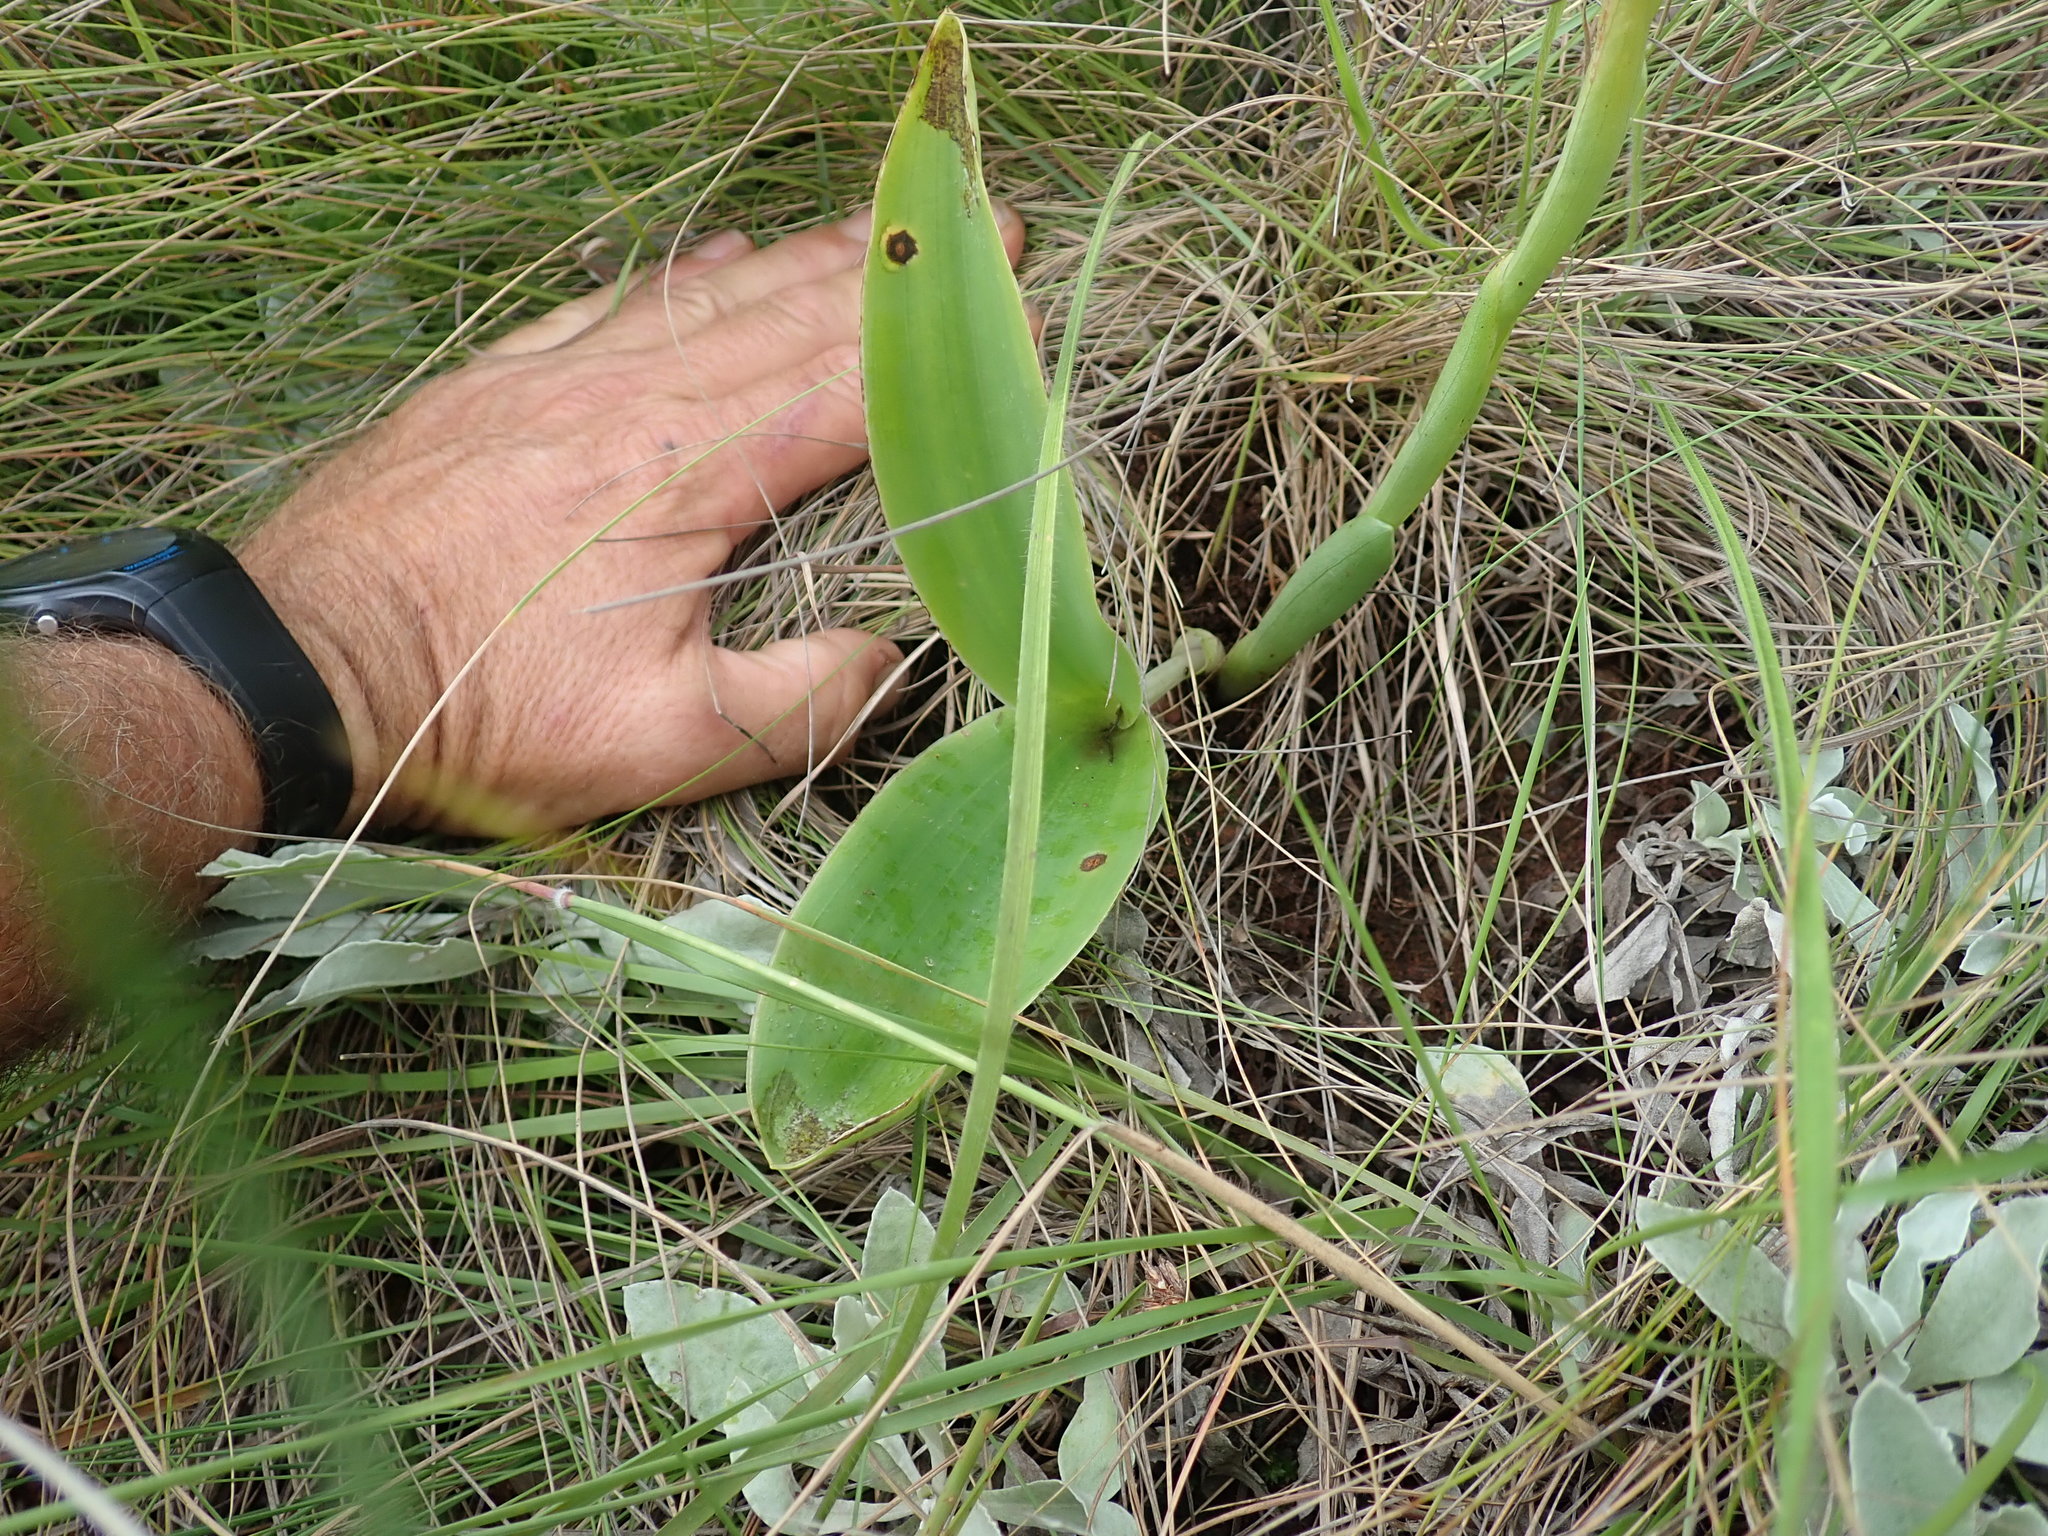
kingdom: Plantae
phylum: Tracheophyta
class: Liliopsida
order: Asparagales
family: Orchidaceae
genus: Satyrium
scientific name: Satyrium longicauda
